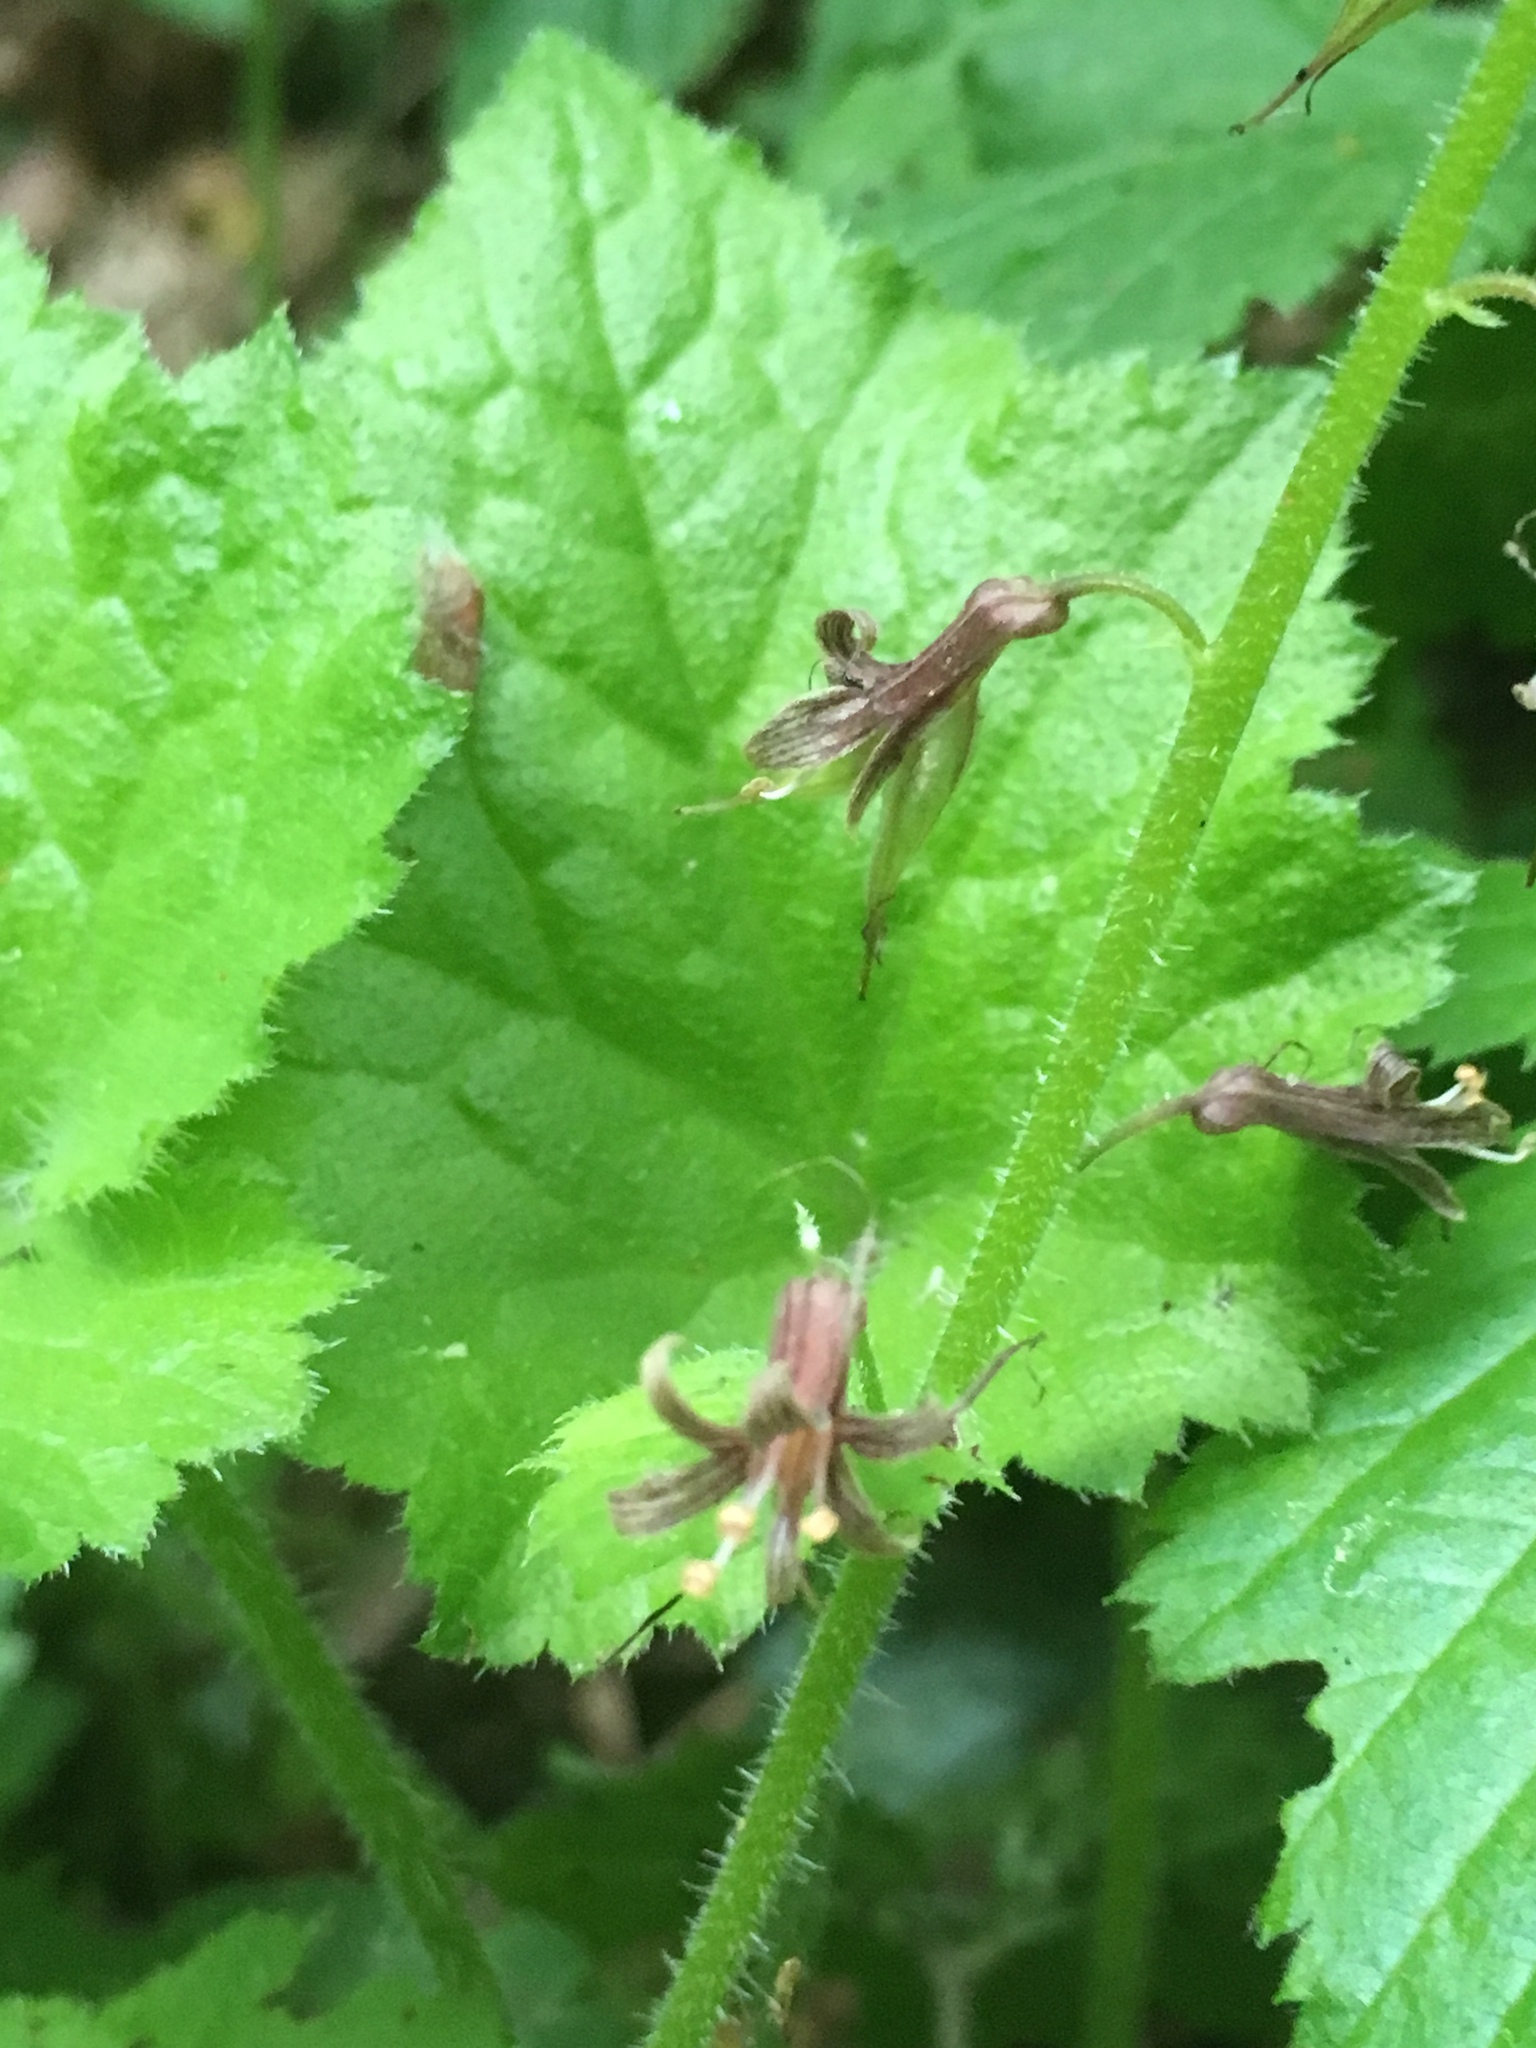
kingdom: Plantae
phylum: Tracheophyta
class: Magnoliopsida
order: Saxifragales
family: Saxifragaceae
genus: Tolmiea
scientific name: Tolmiea menziesii
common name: Pick-a-back-plant
